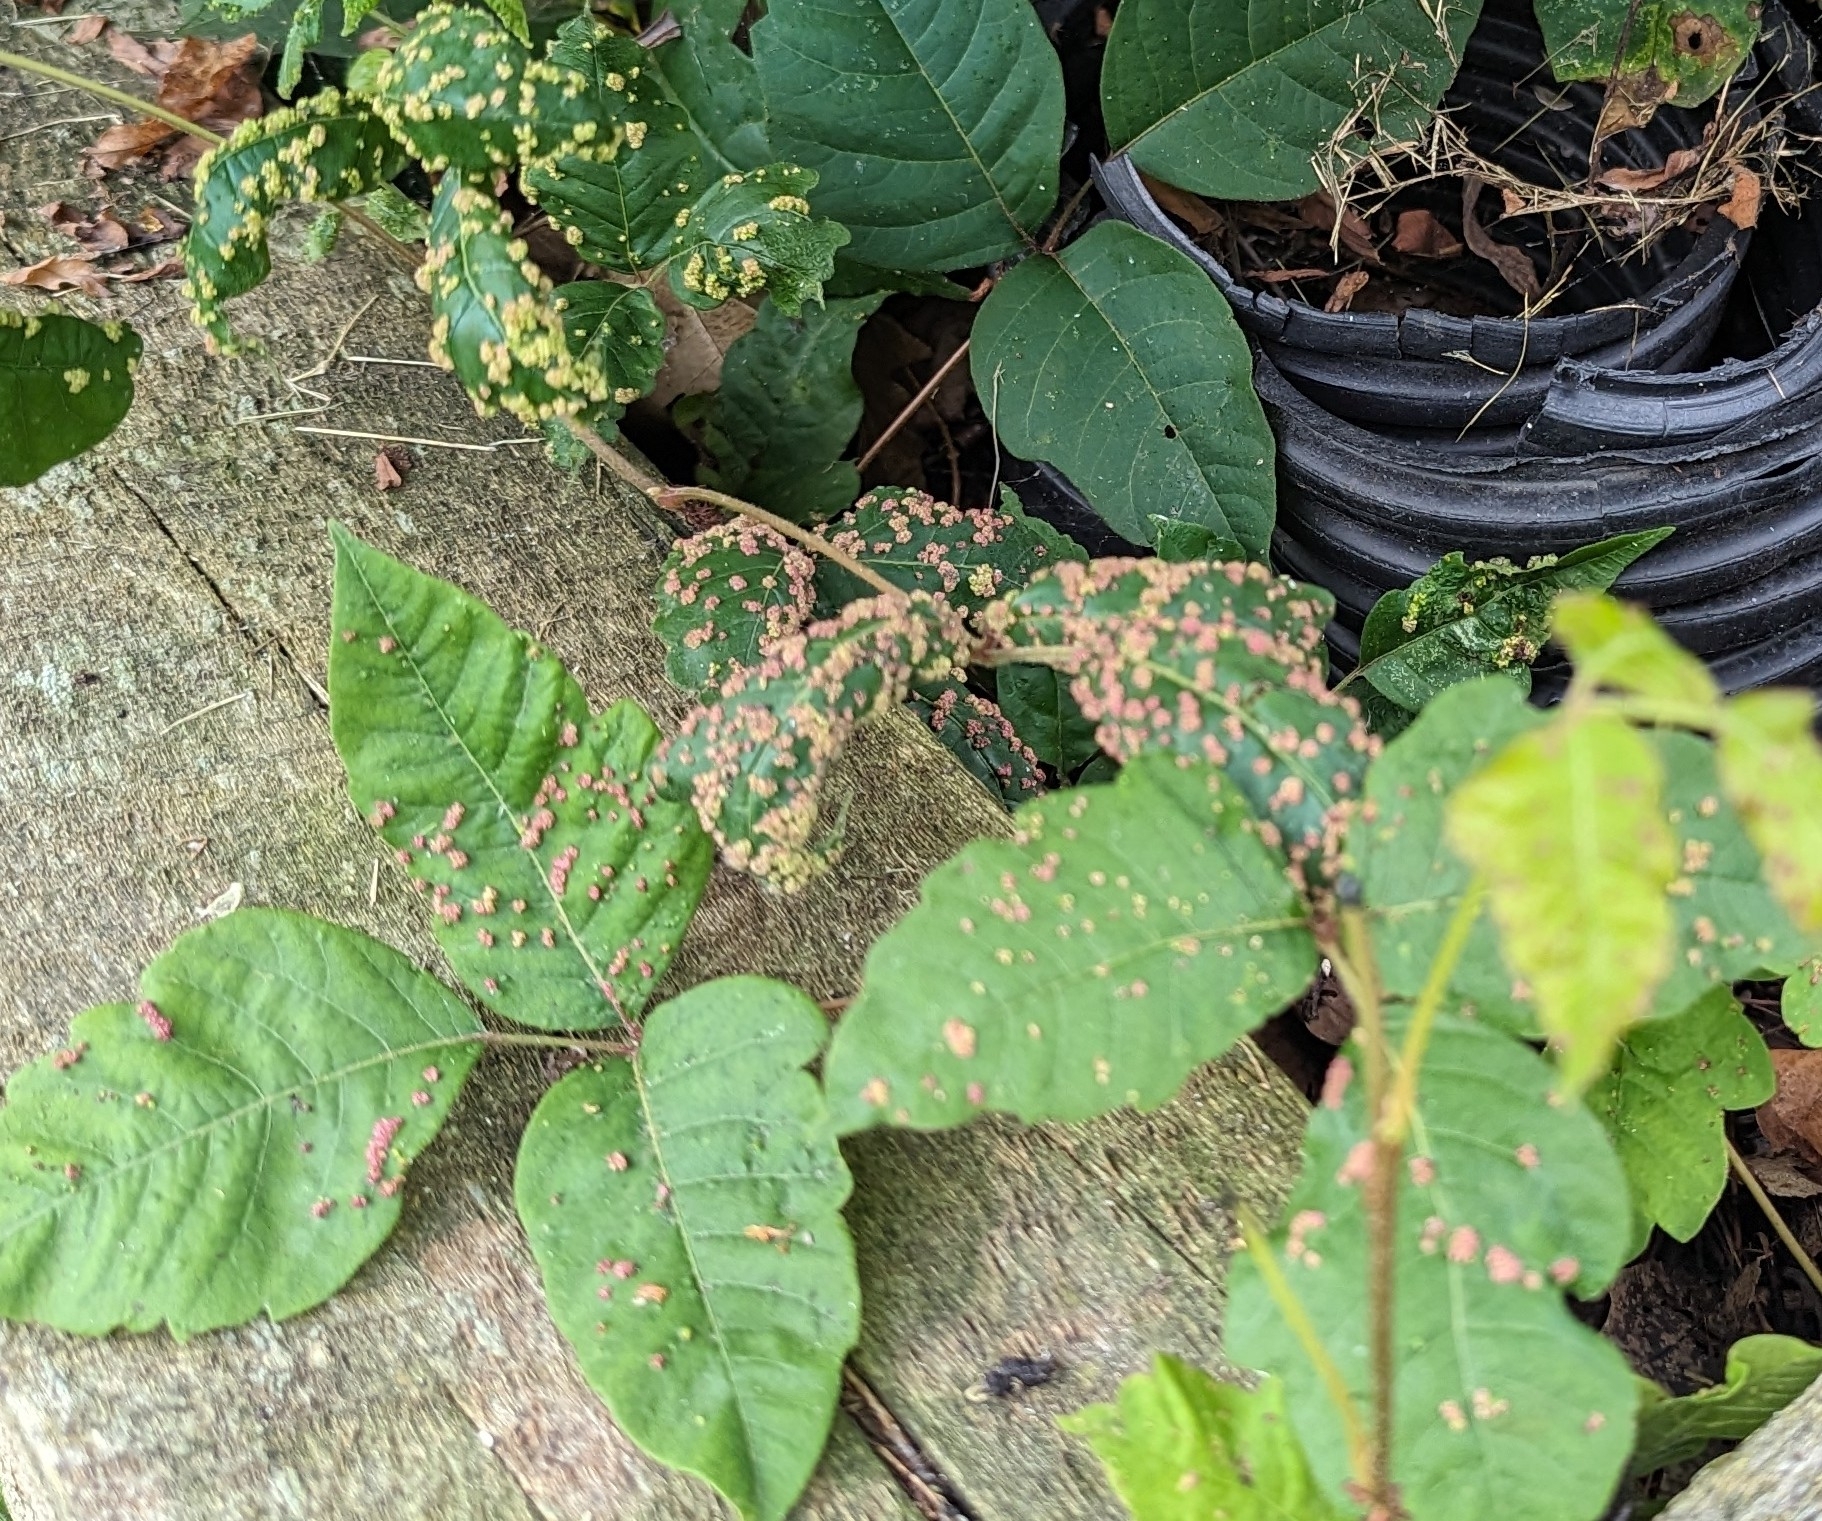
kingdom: Animalia
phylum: Arthropoda
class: Arachnida
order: Trombidiformes
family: Eriophyidae
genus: Aculops
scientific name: Aculops
